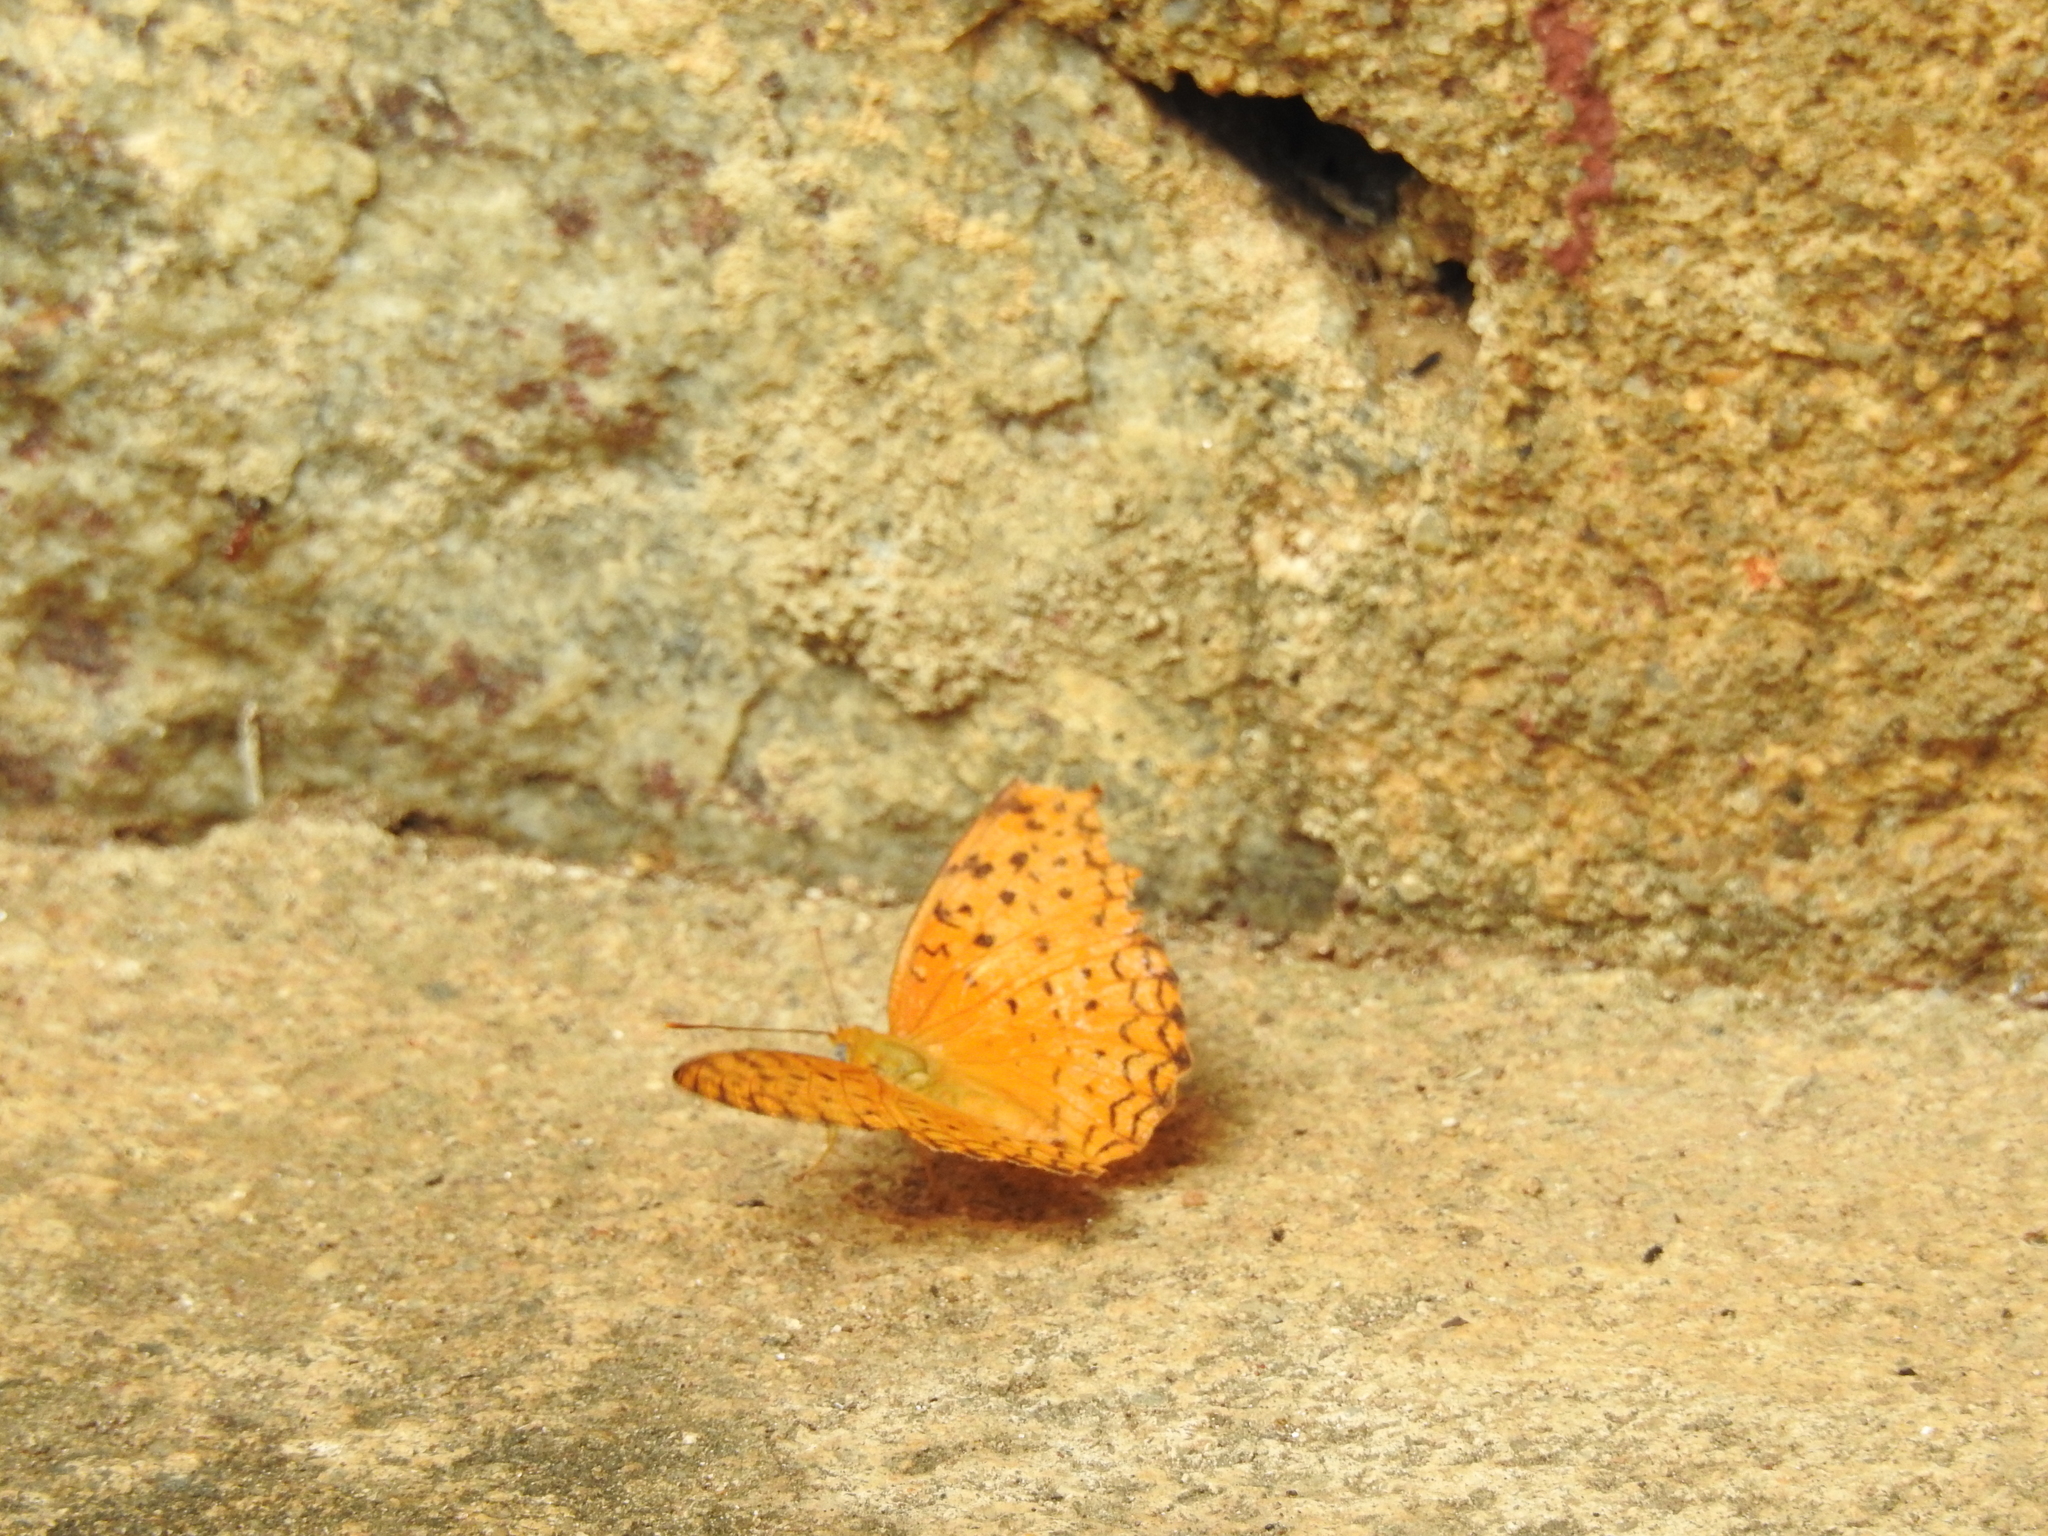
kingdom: Animalia
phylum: Arthropoda
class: Insecta
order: Lepidoptera
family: Nymphalidae
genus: Phalanta
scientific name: Phalanta phalantha
